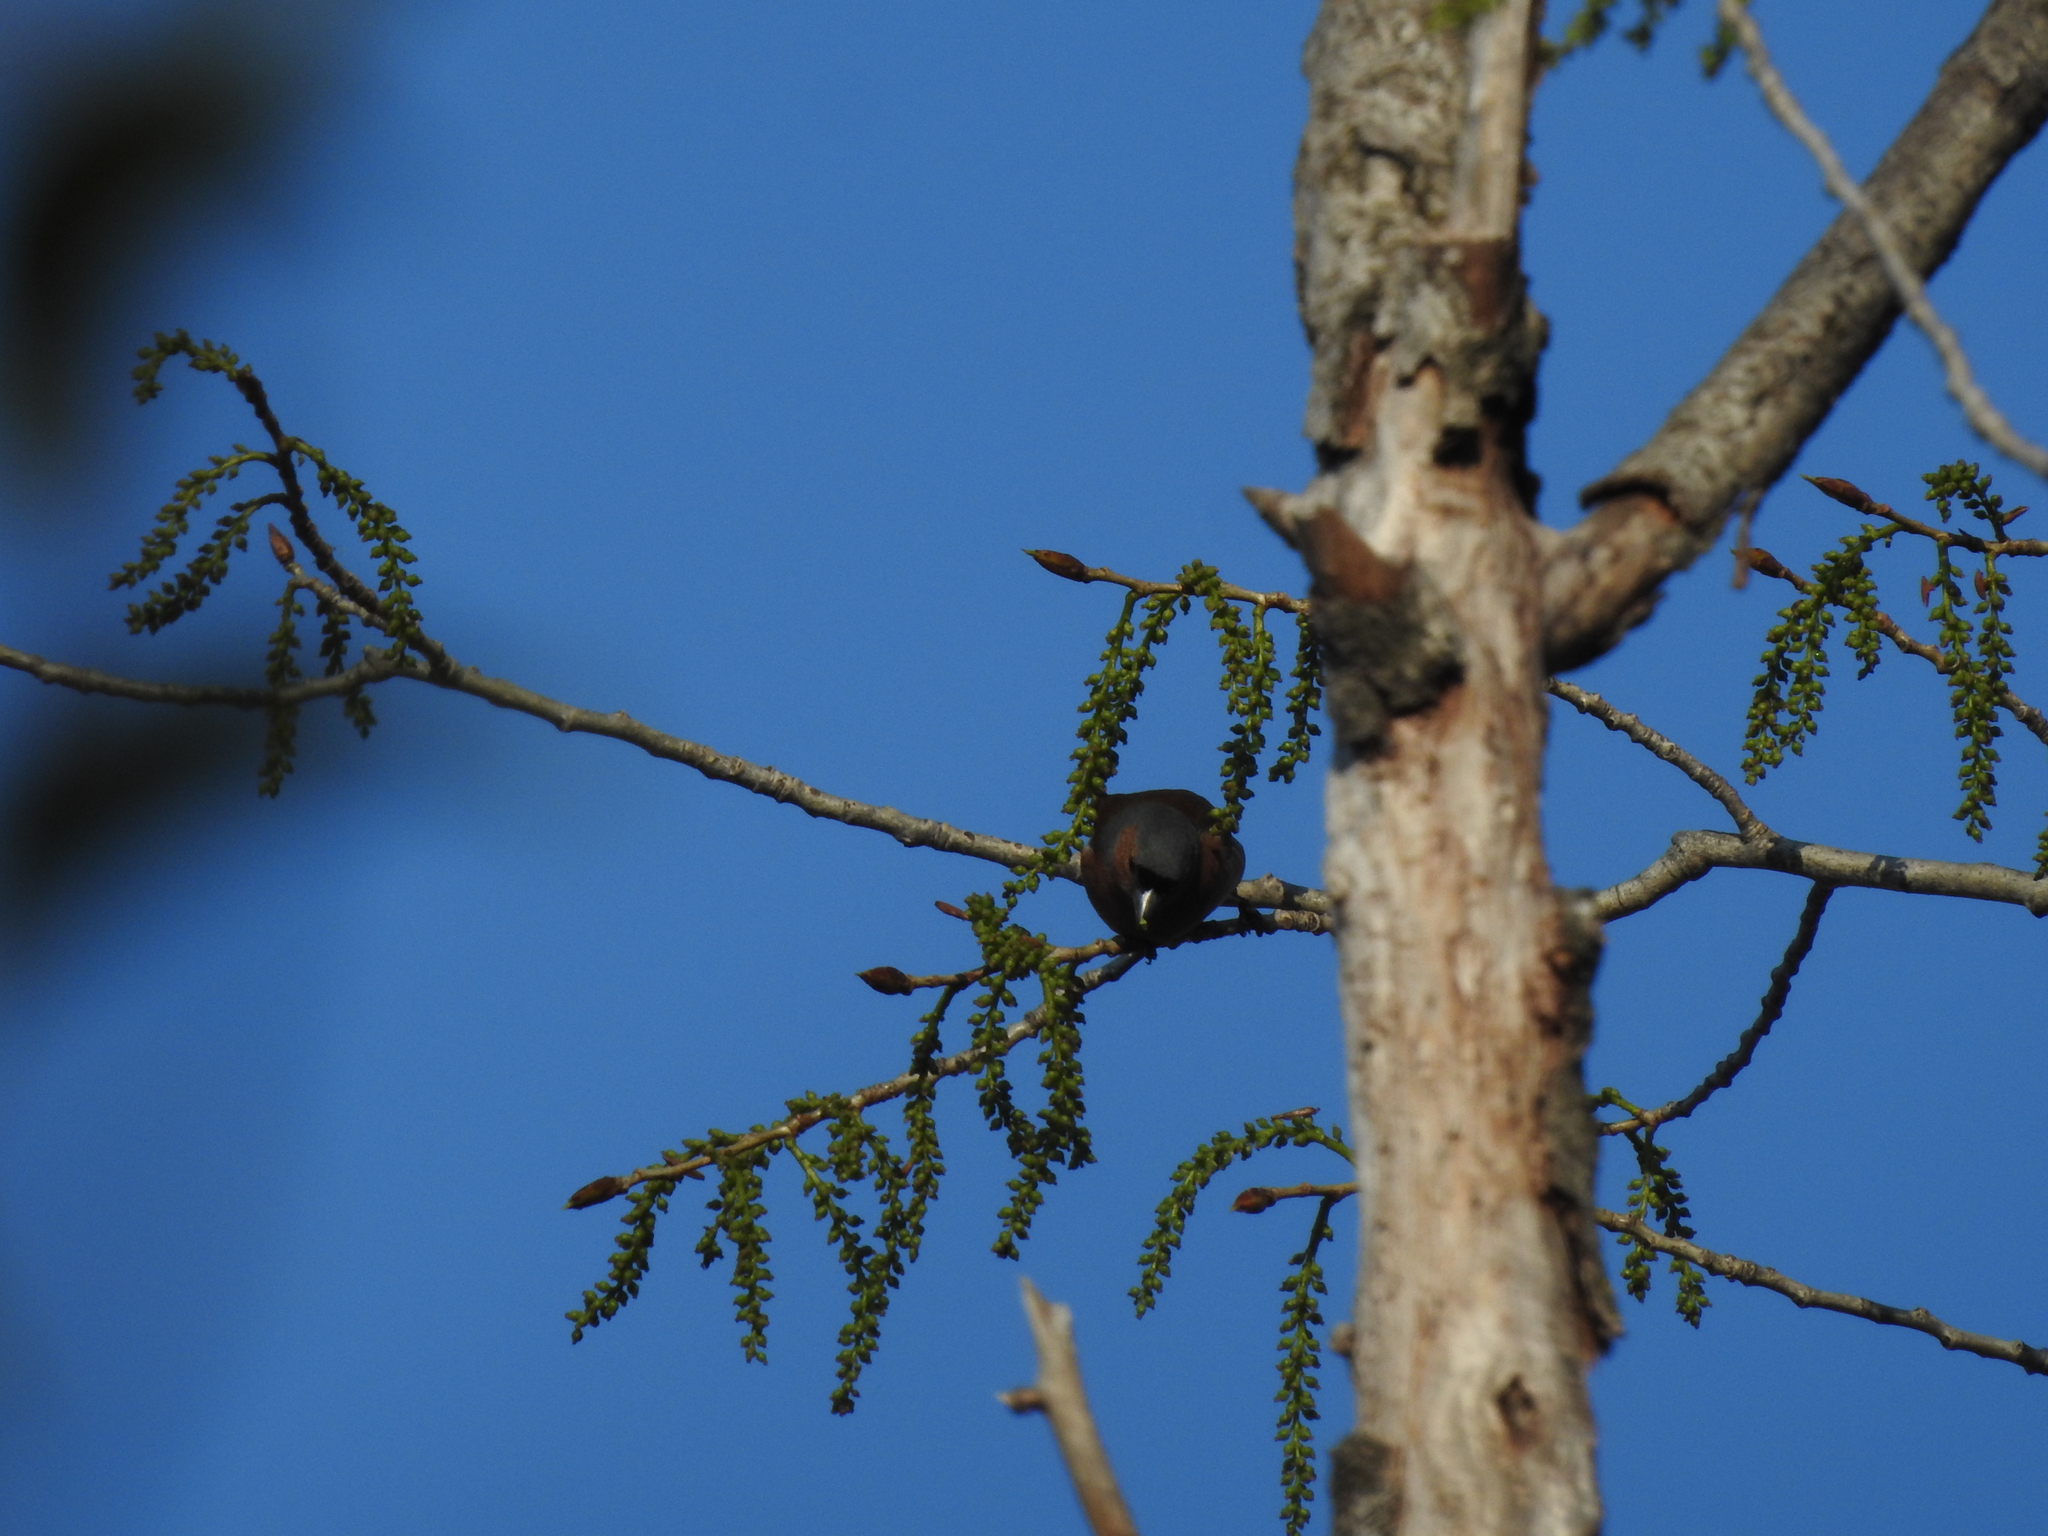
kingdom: Animalia
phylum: Chordata
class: Aves
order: Passeriformes
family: Fringillidae
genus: Fringilla
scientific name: Fringilla coelebs
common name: Common chaffinch
